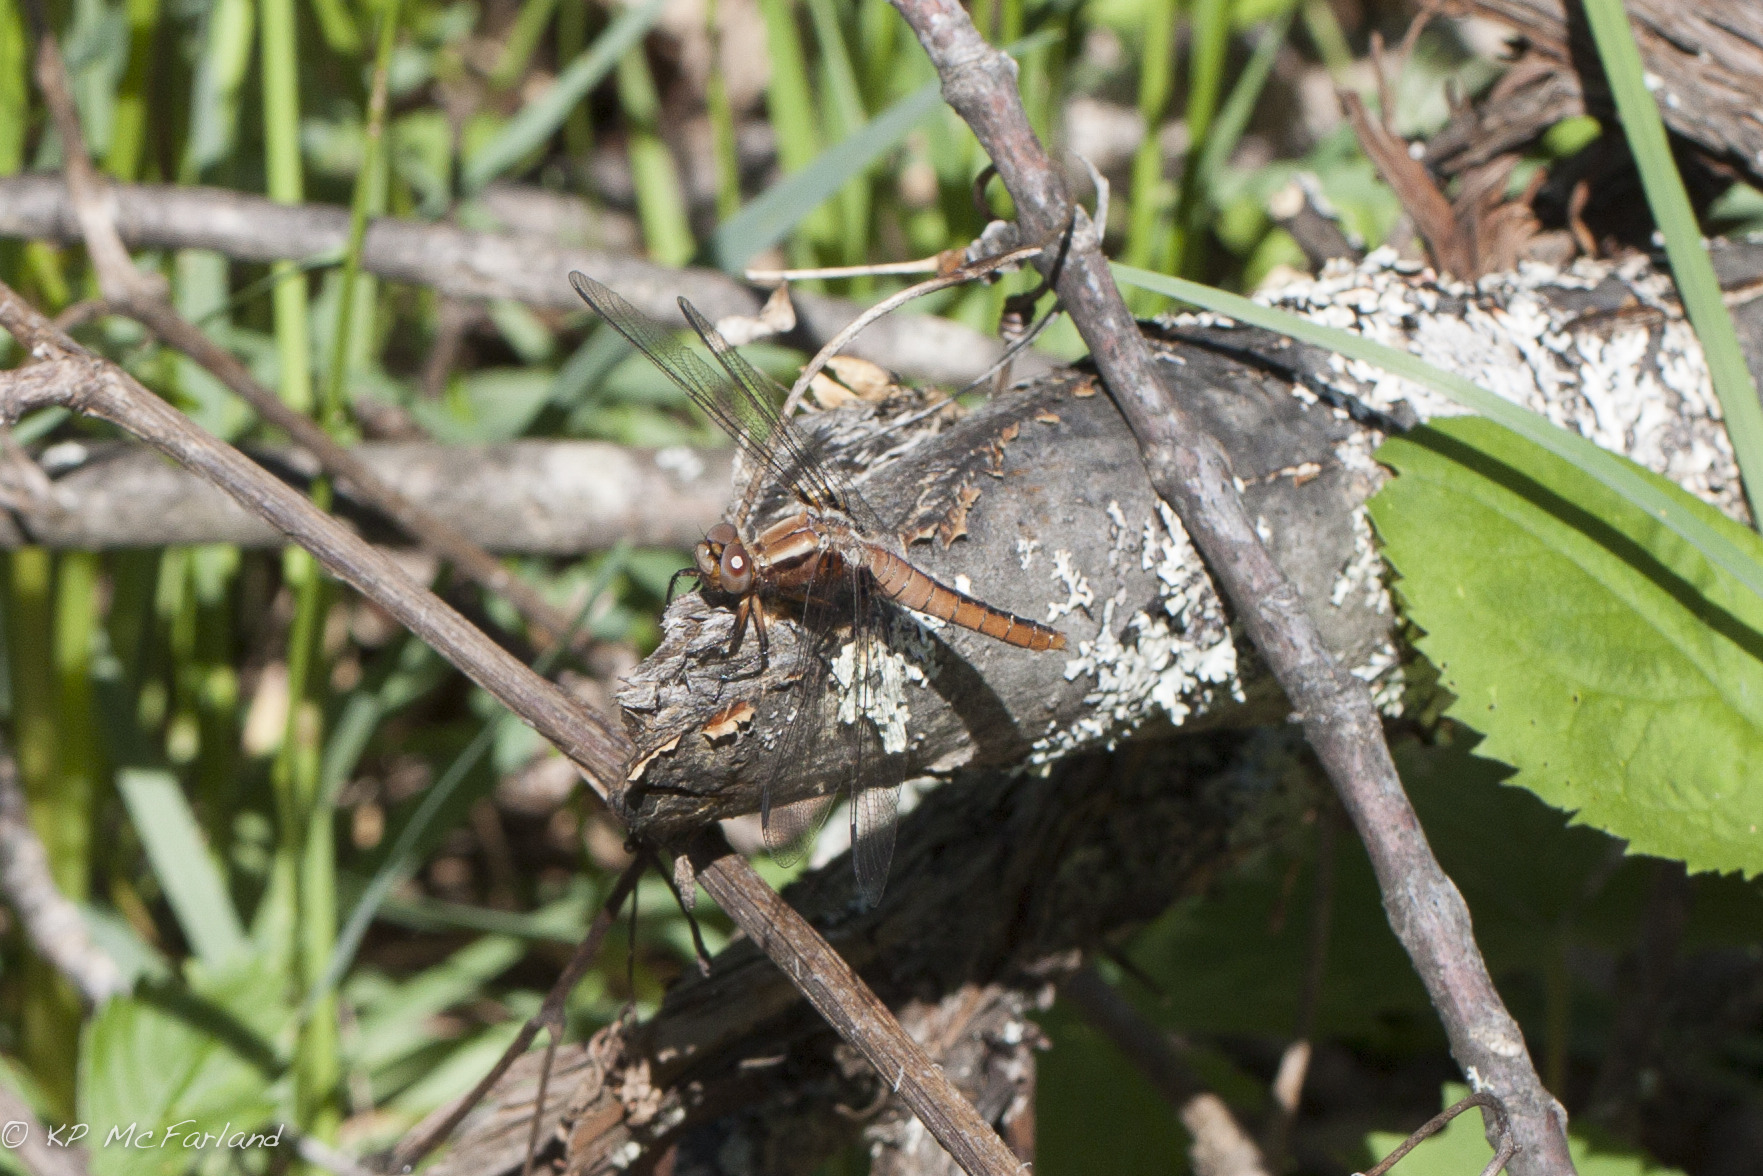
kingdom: Animalia
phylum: Arthropoda
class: Insecta
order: Odonata
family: Libellulidae
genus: Ladona
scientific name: Ladona julia
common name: Chalk-fronted corporal
